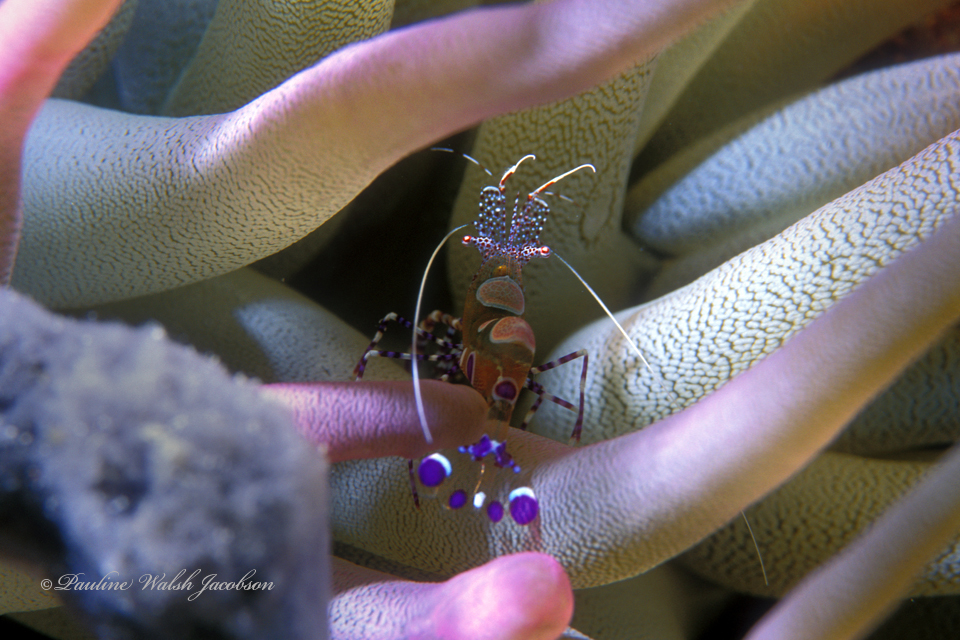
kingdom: Animalia
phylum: Arthropoda
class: Malacostraca
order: Decapoda
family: Palaemonidae
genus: Periclimenes
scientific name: Periclimenes yucatanicus
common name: Spotted cleaning shrimp
